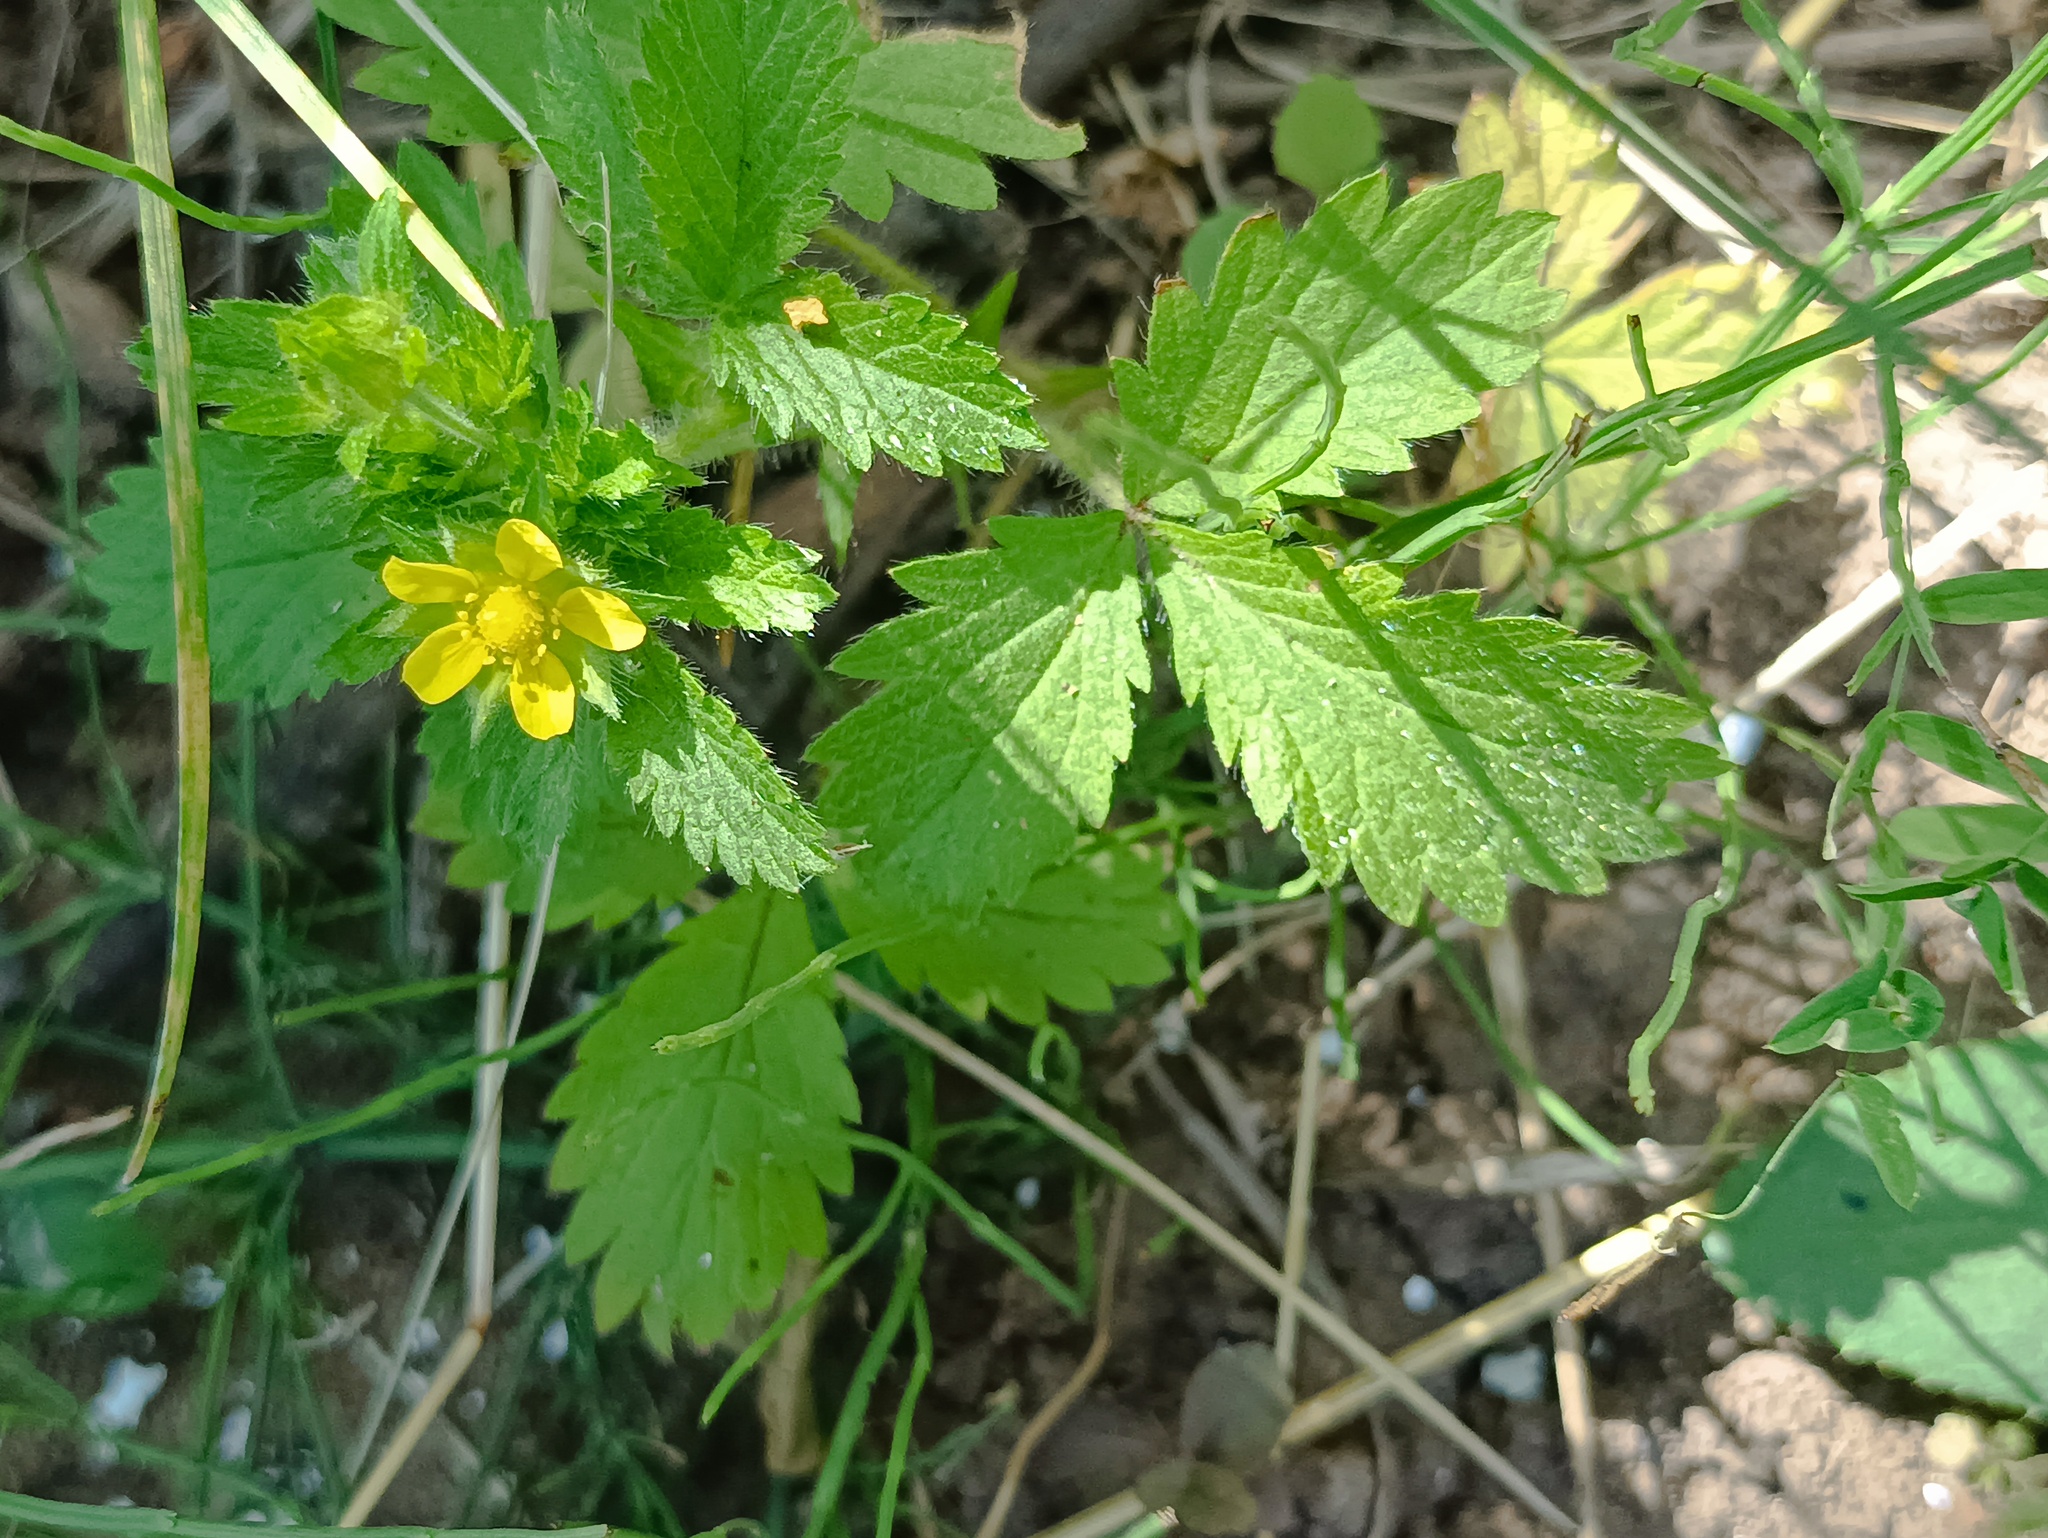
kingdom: Plantae
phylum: Tracheophyta
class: Magnoliopsida
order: Rosales
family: Rosaceae
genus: Potentilla
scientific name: Potentilla norvegica
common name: Ternate-leaved cinquefoil
